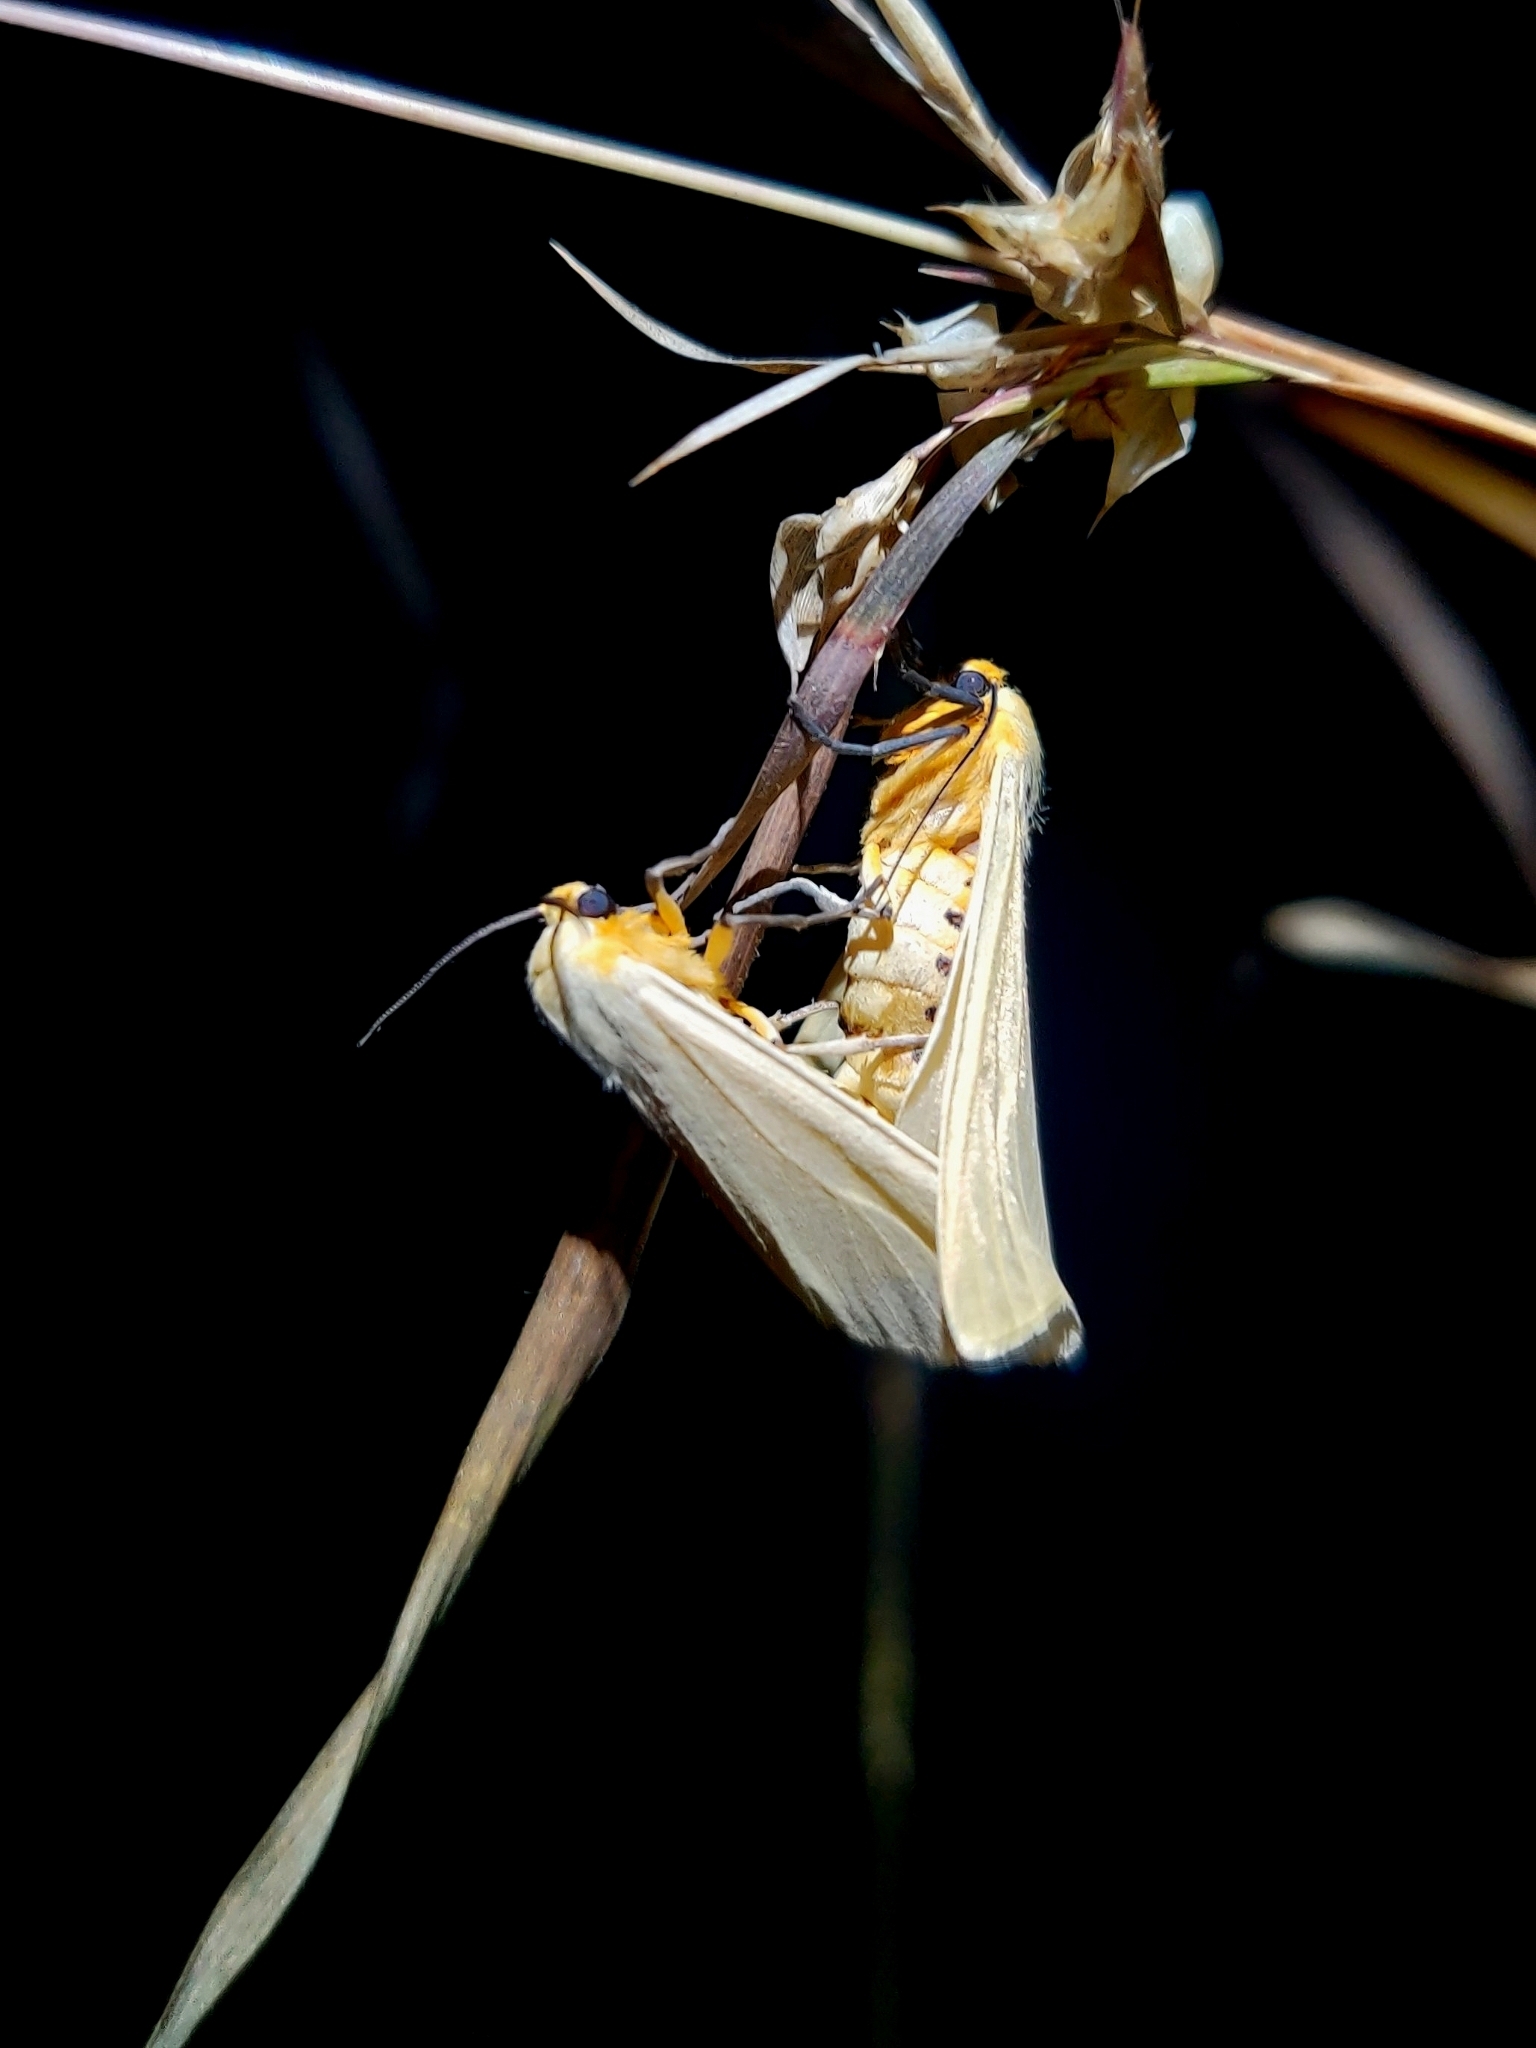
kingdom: Animalia
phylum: Arthropoda
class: Insecta
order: Lepidoptera
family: Erebidae
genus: Pareuchaetes
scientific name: Pareuchaetes pseudoinsulata
